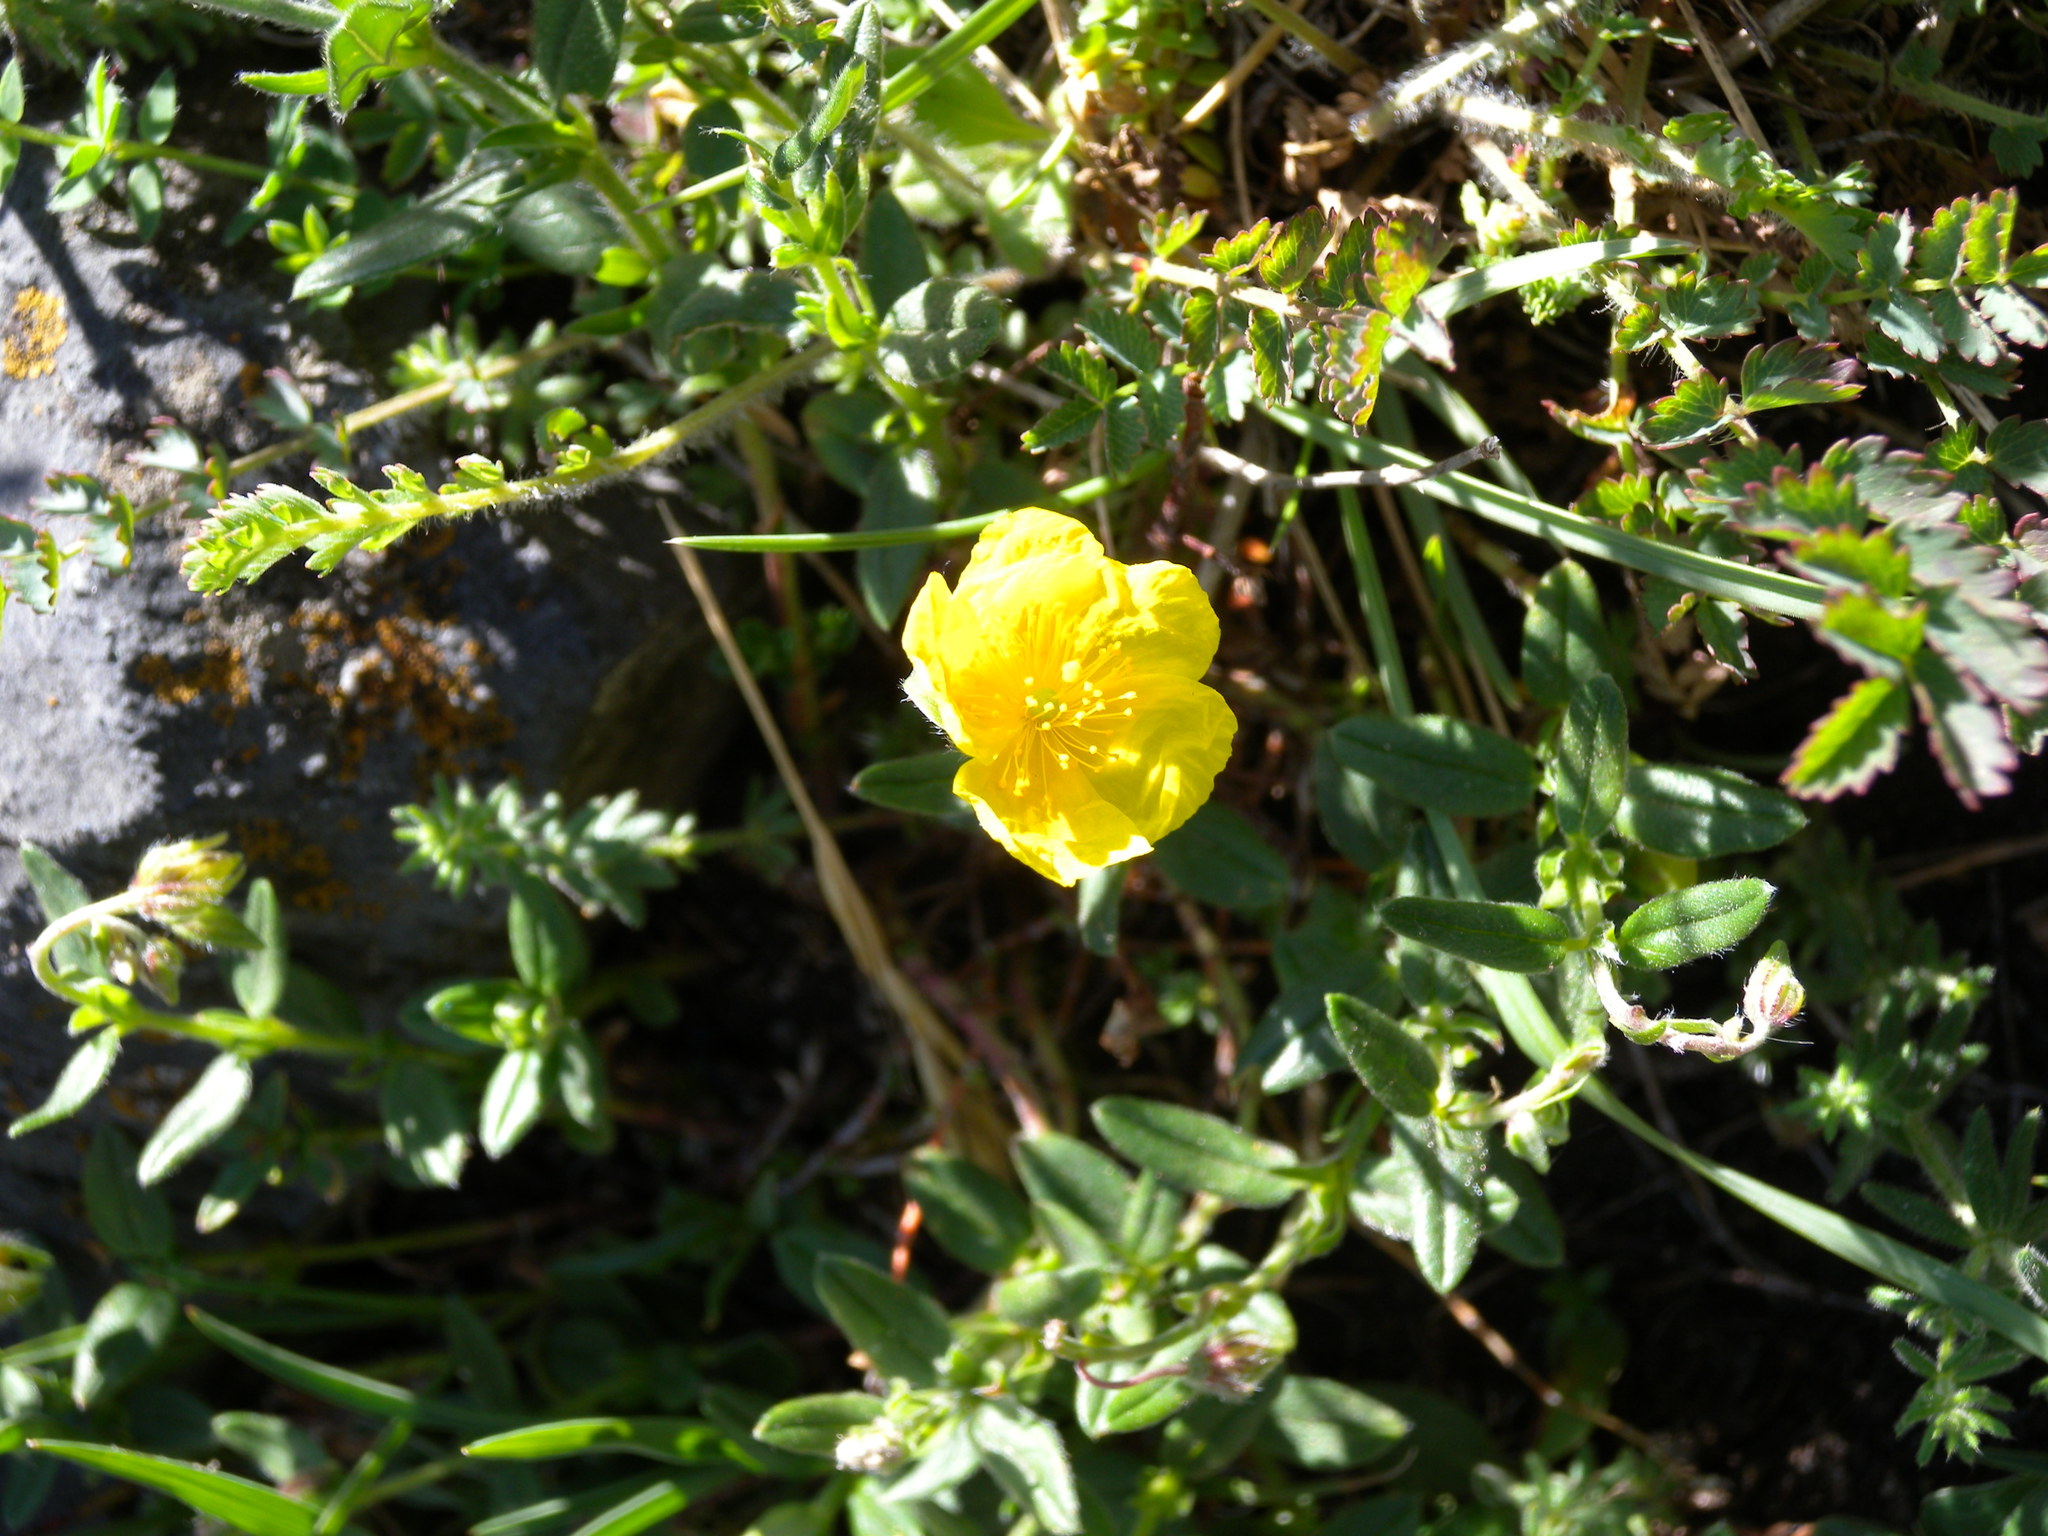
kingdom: Plantae
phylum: Tracheophyta
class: Magnoliopsida
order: Malvales
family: Cistaceae
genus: Helianthemum
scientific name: Helianthemum nummularium
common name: Common rock-rose
